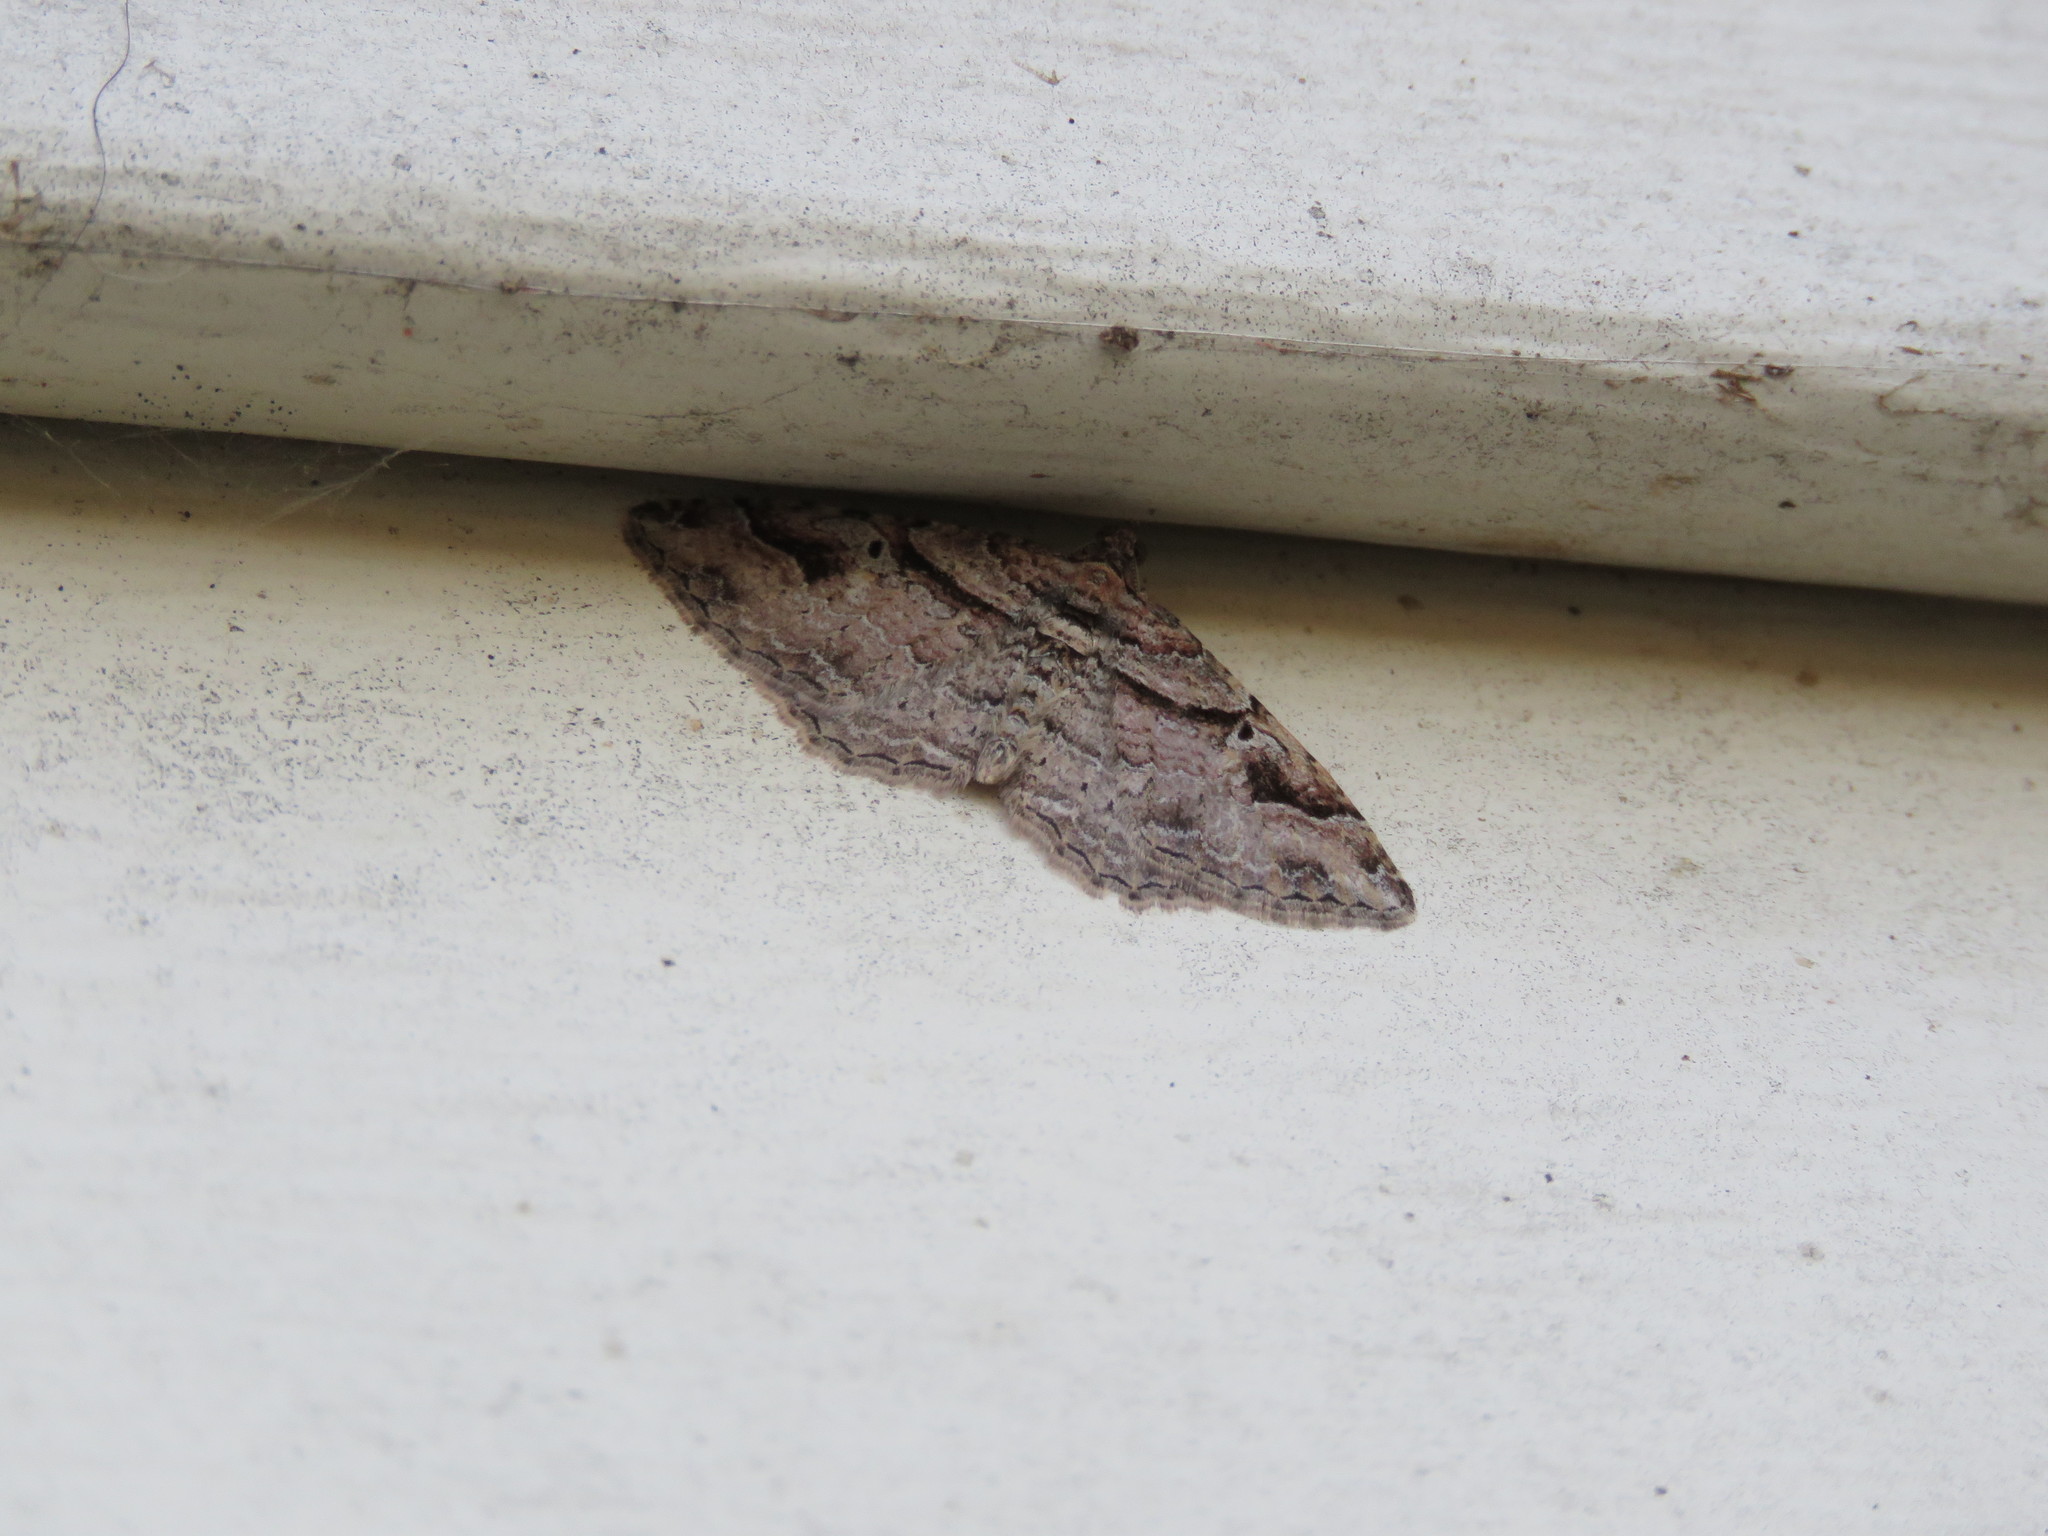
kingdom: Animalia
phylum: Arthropoda
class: Insecta
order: Lepidoptera
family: Geometridae
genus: Costaconvexa
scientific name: Costaconvexa centrostrigaria
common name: Bent-line carpet
